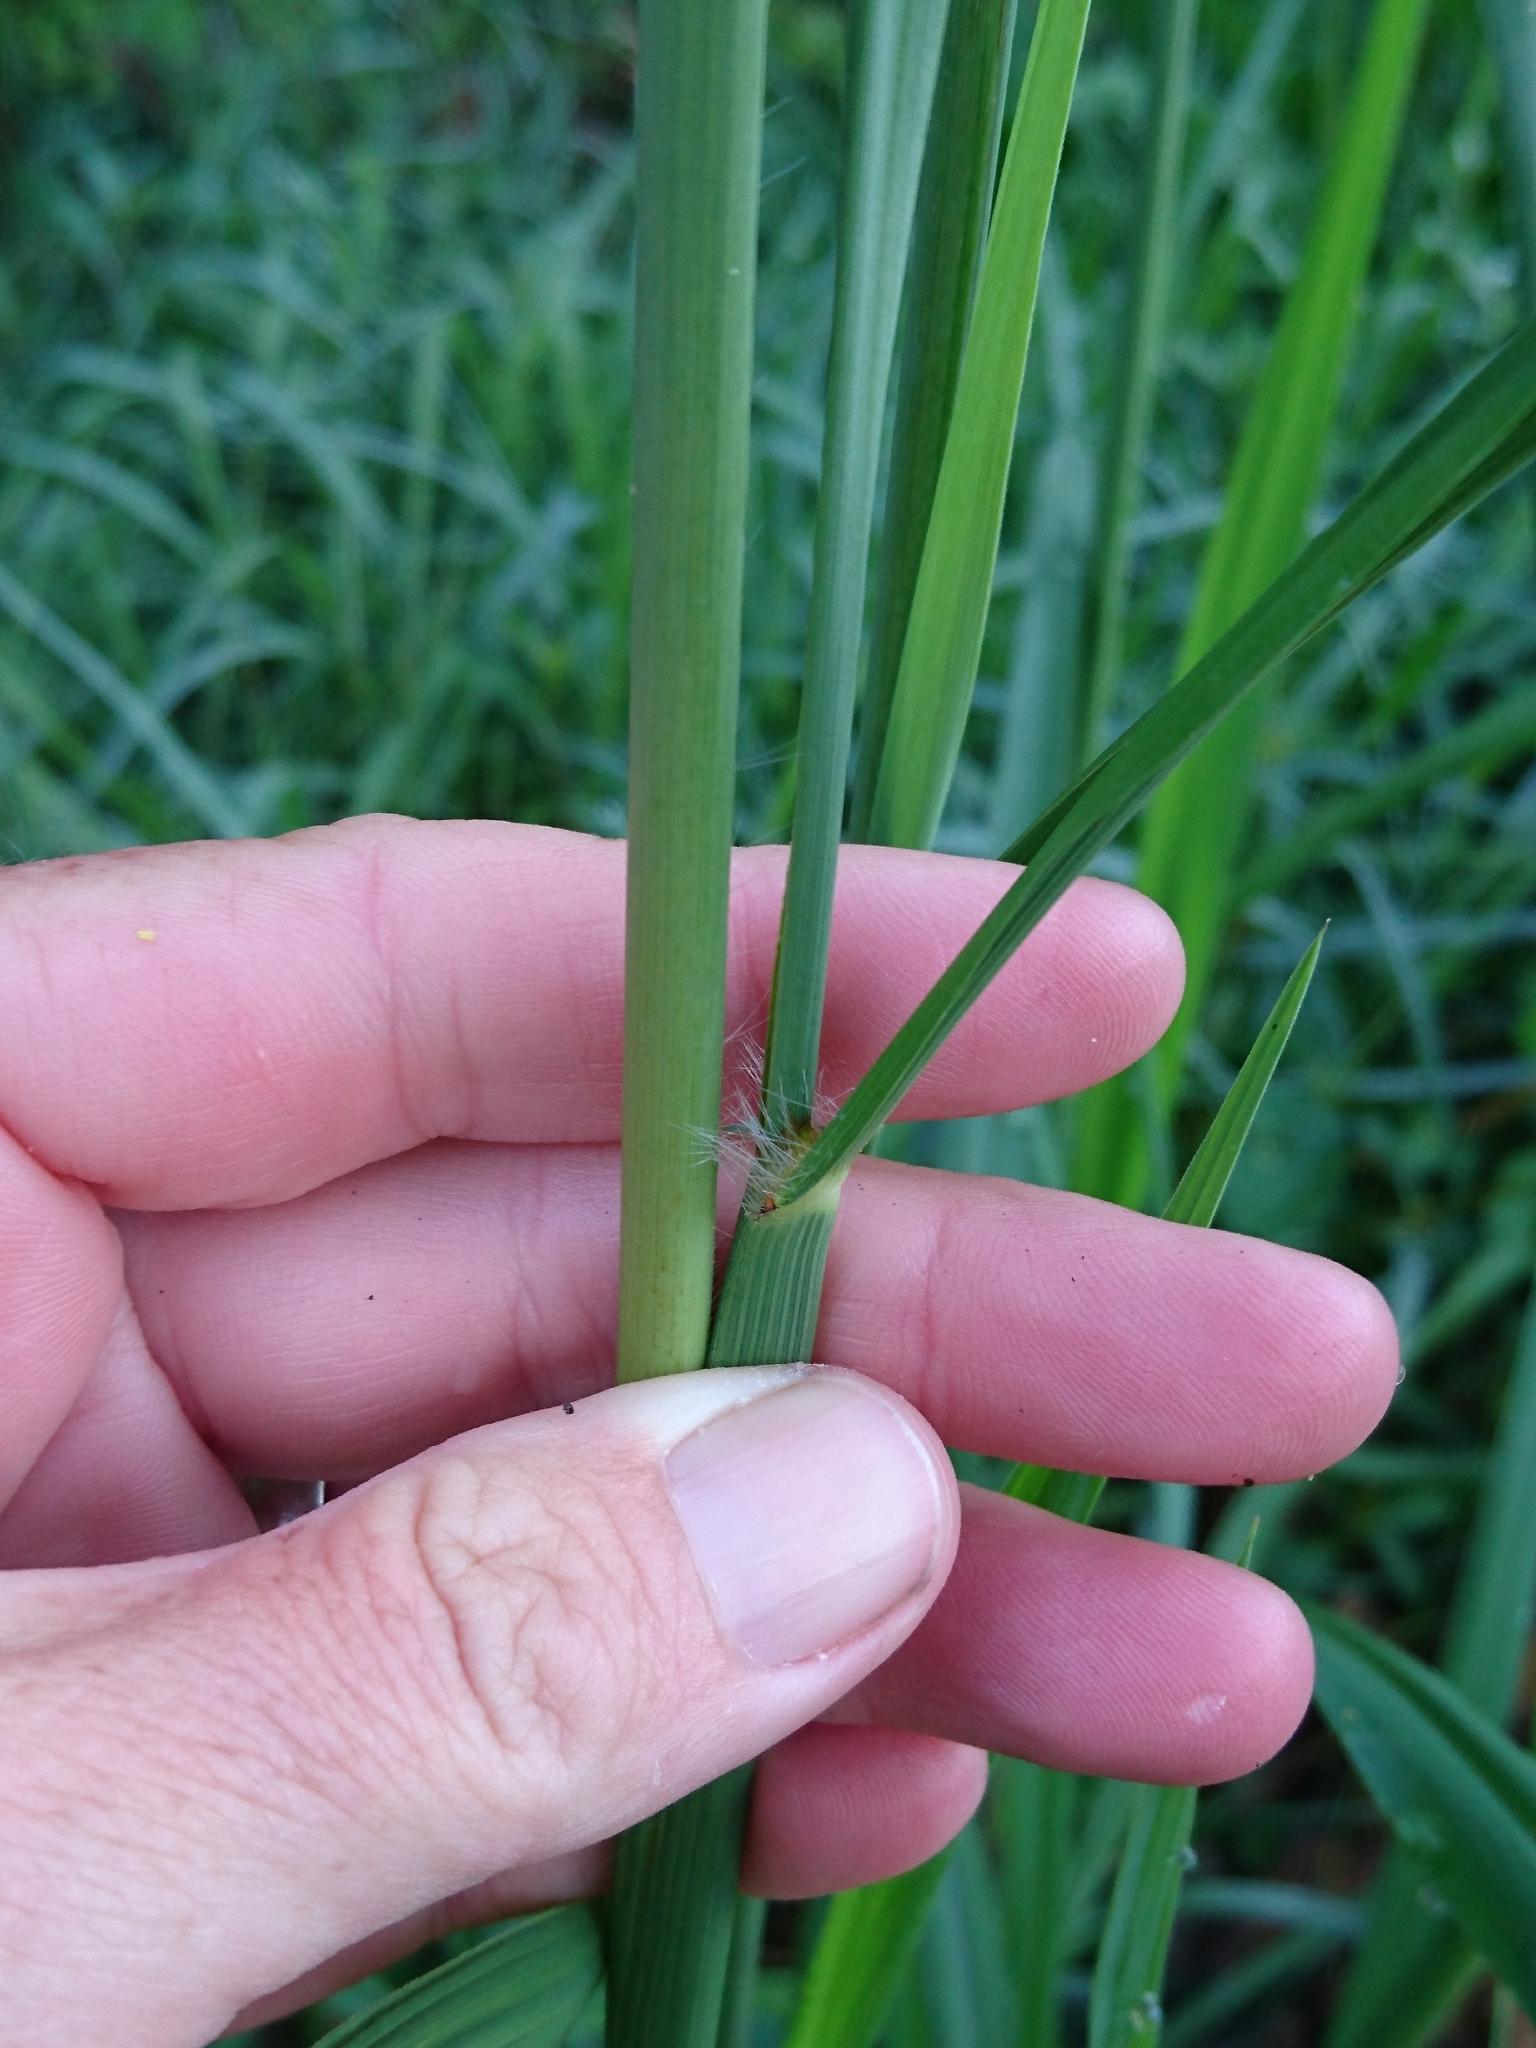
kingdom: Plantae
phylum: Tracheophyta
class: Liliopsida
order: Poales
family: Poaceae
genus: Paspalum
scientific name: Paspalum urvillei
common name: Vasey's grass
